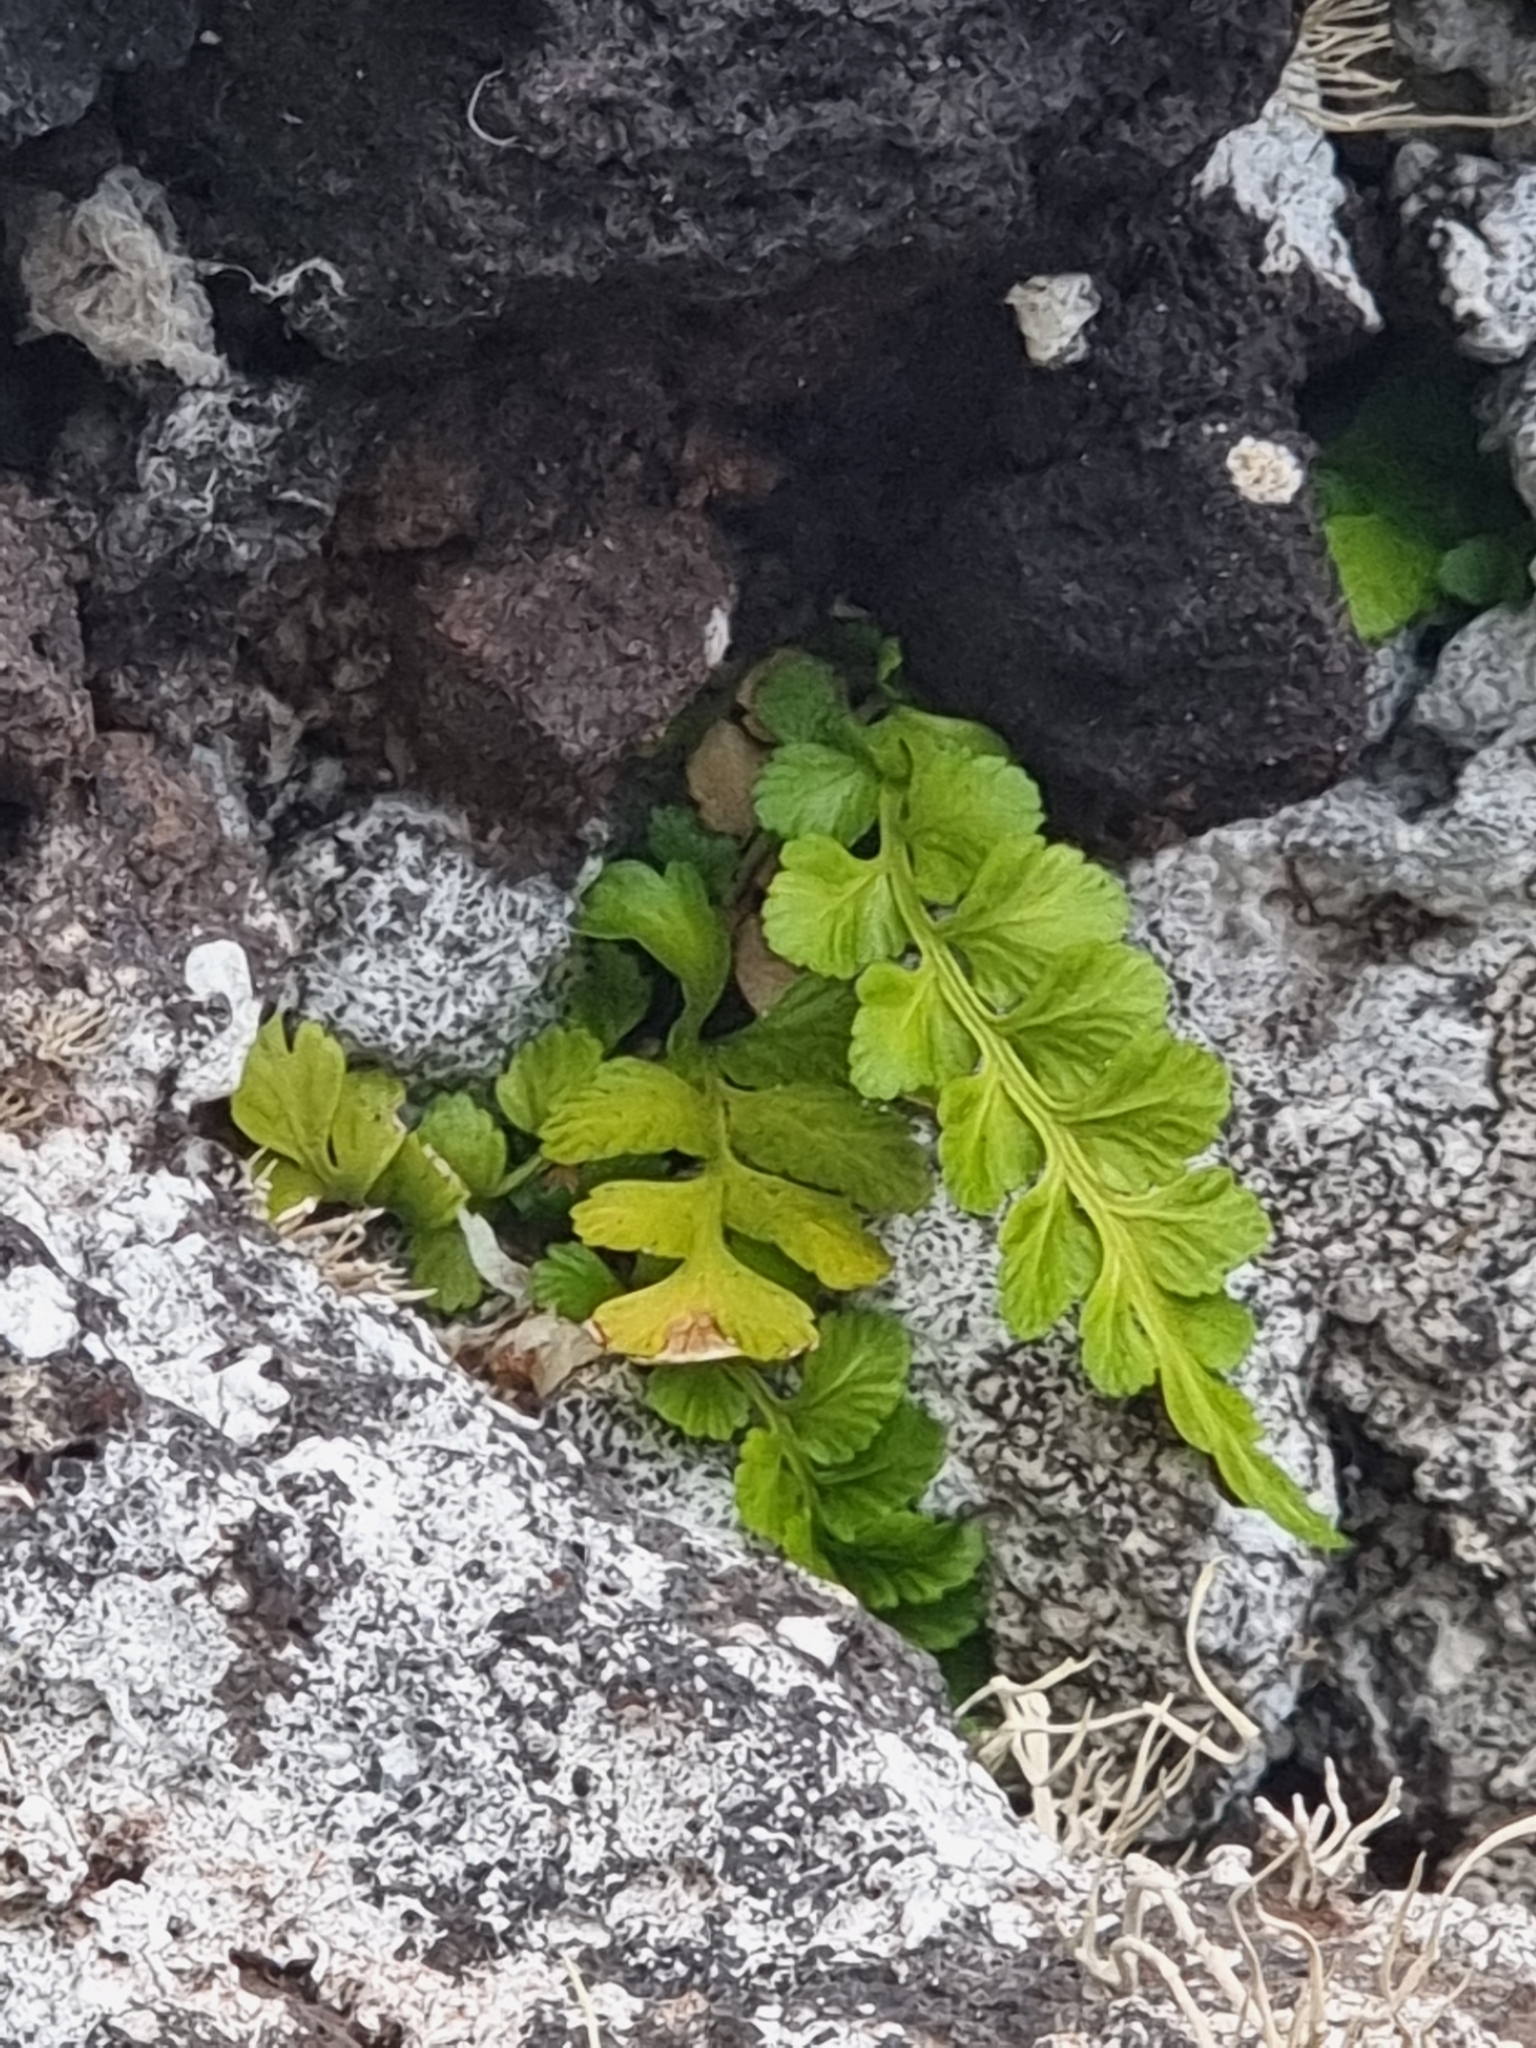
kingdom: Plantae
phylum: Tracheophyta
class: Polypodiopsida
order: Polypodiales
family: Aspleniaceae
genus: Asplenium
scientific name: Asplenium marinum
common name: Sea spleenwort
